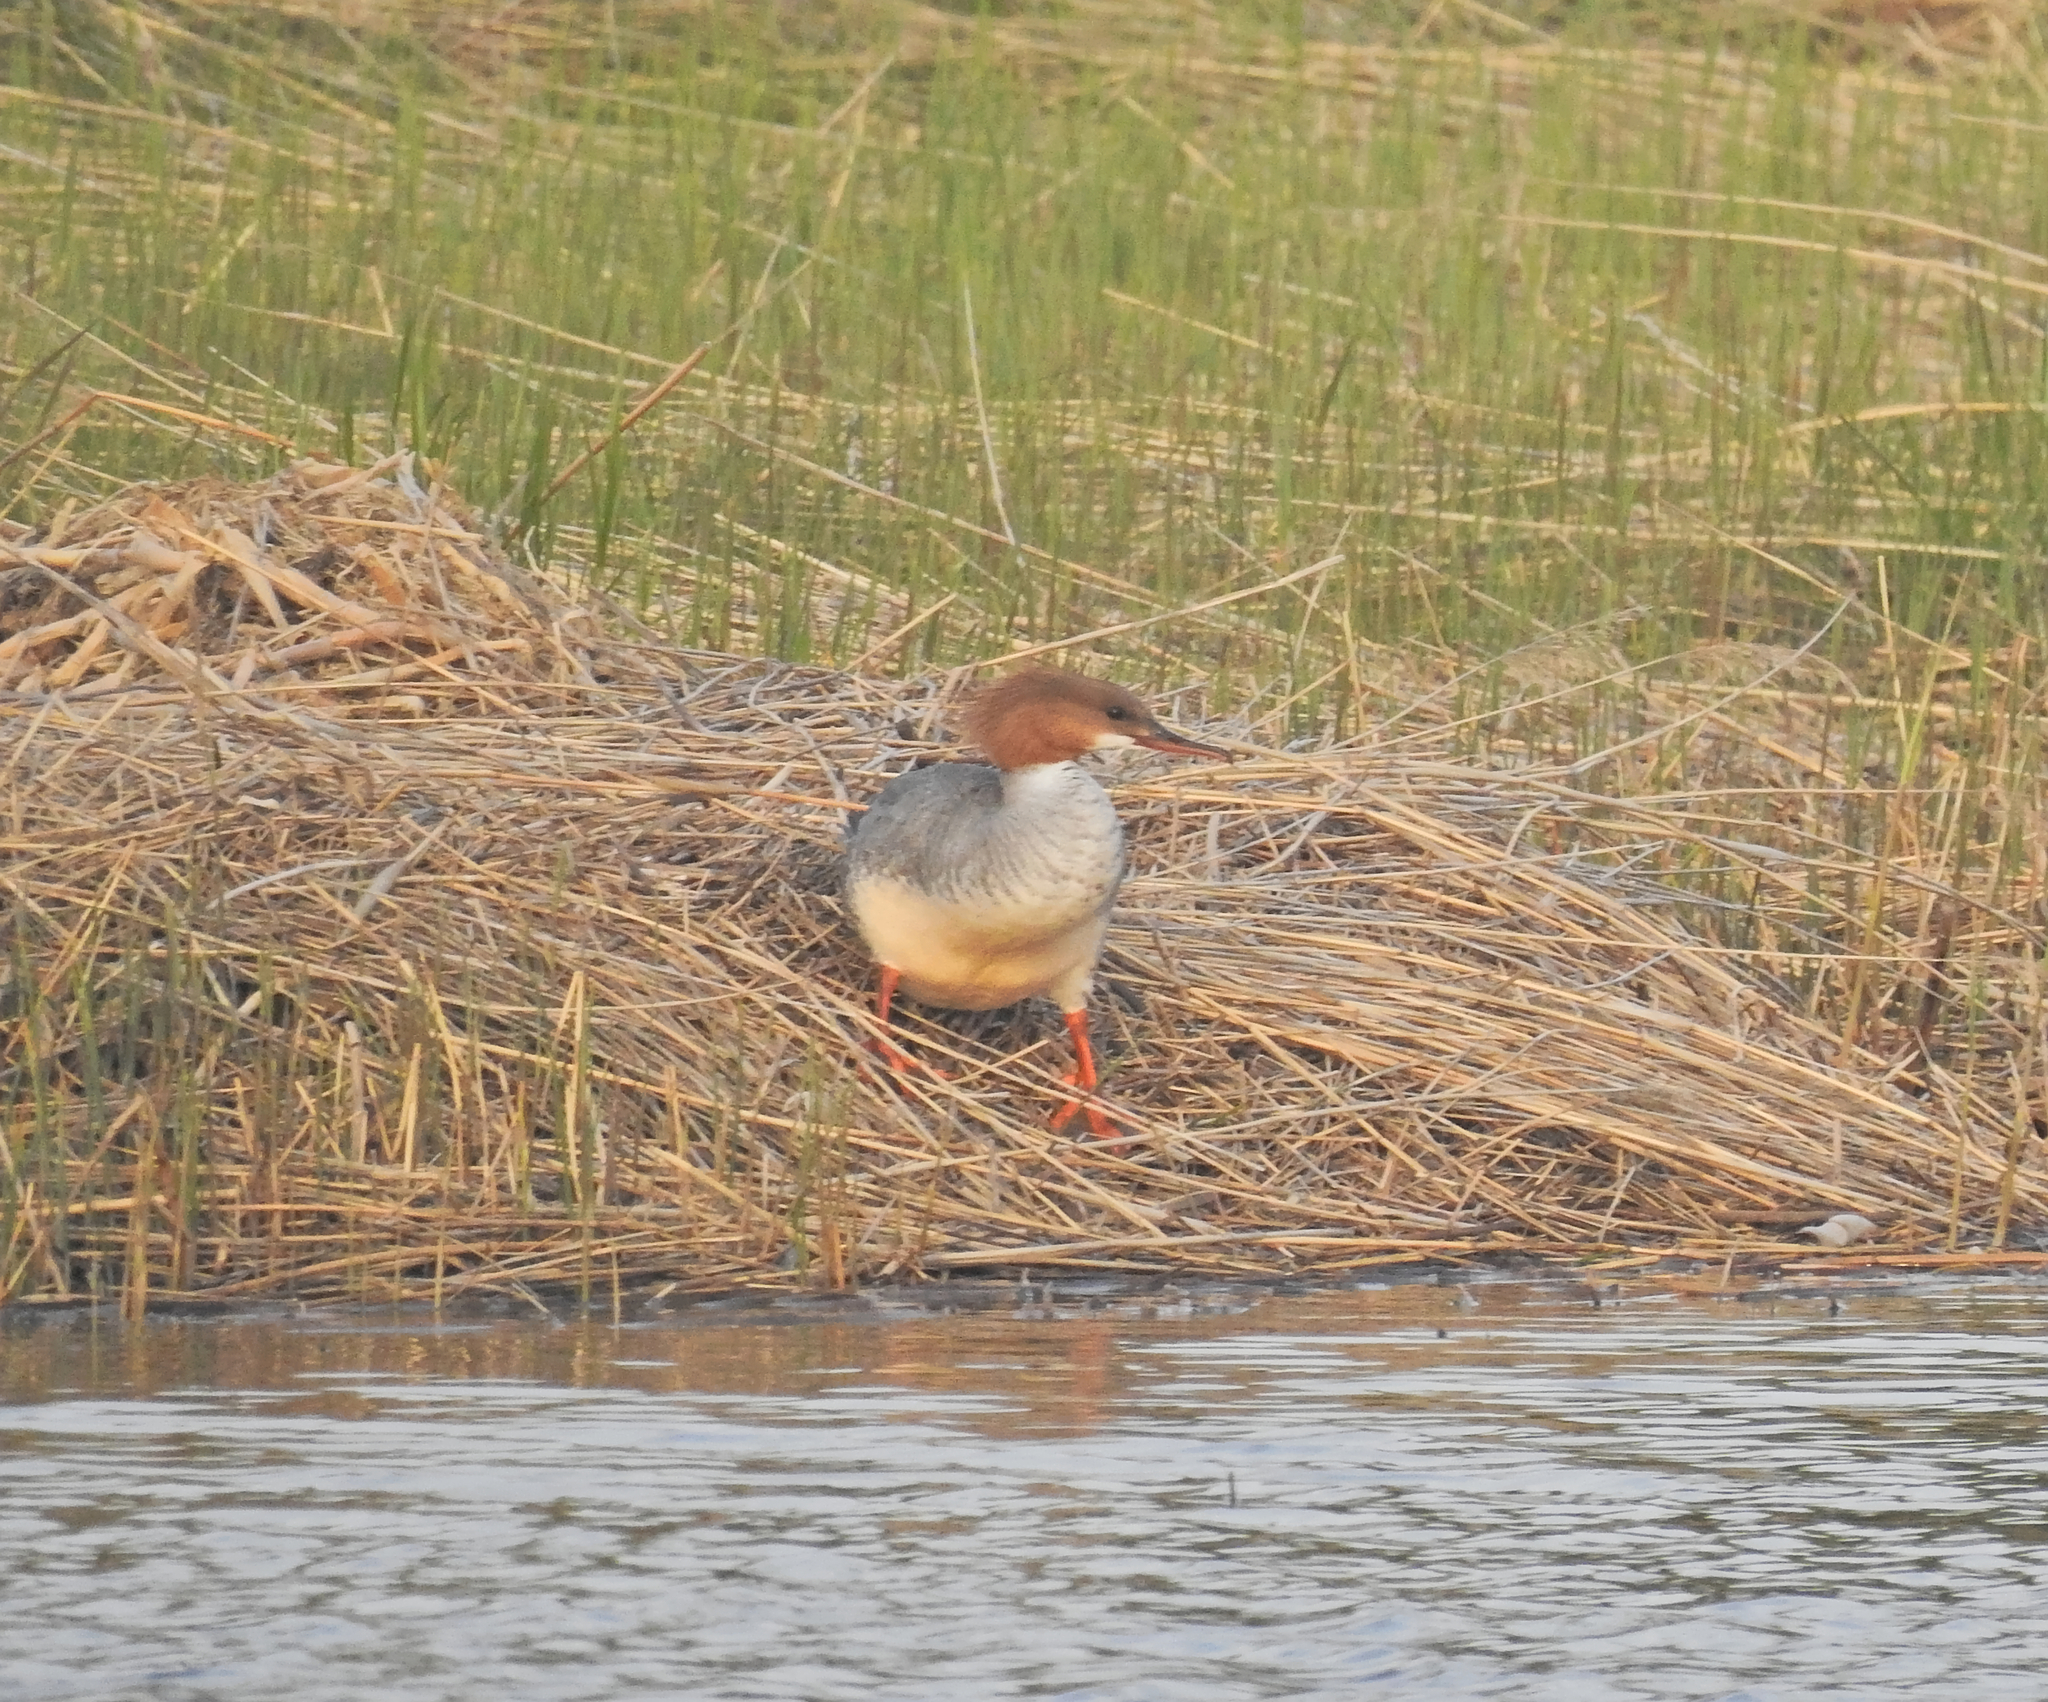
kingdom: Animalia
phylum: Chordata
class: Aves
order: Anseriformes
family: Anatidae
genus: Mergus
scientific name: Mergus merganser
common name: Common merganser
